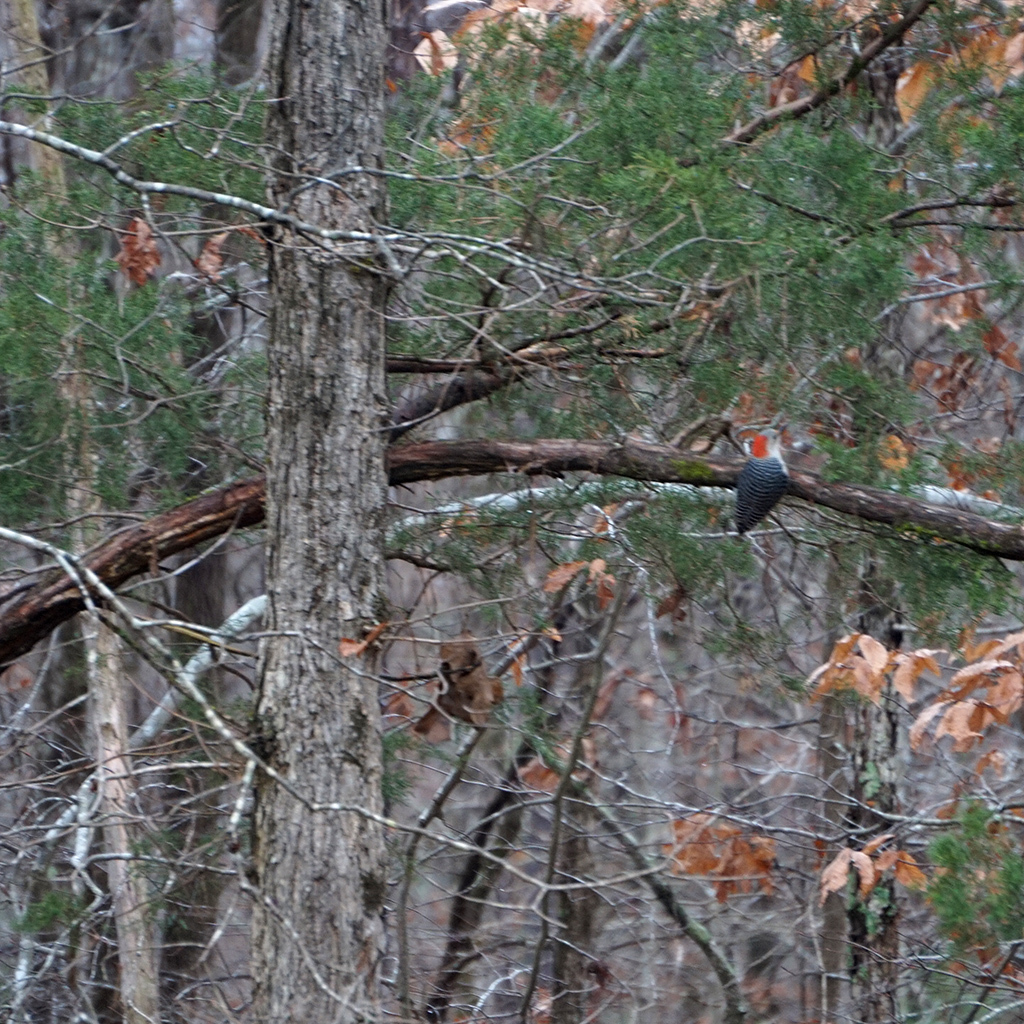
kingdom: Animalia
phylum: Chordata
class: Aves
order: Piciformes
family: Picidae
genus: Melanerpes
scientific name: Melanerpes carolinus
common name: Red-bellied woodpecker
